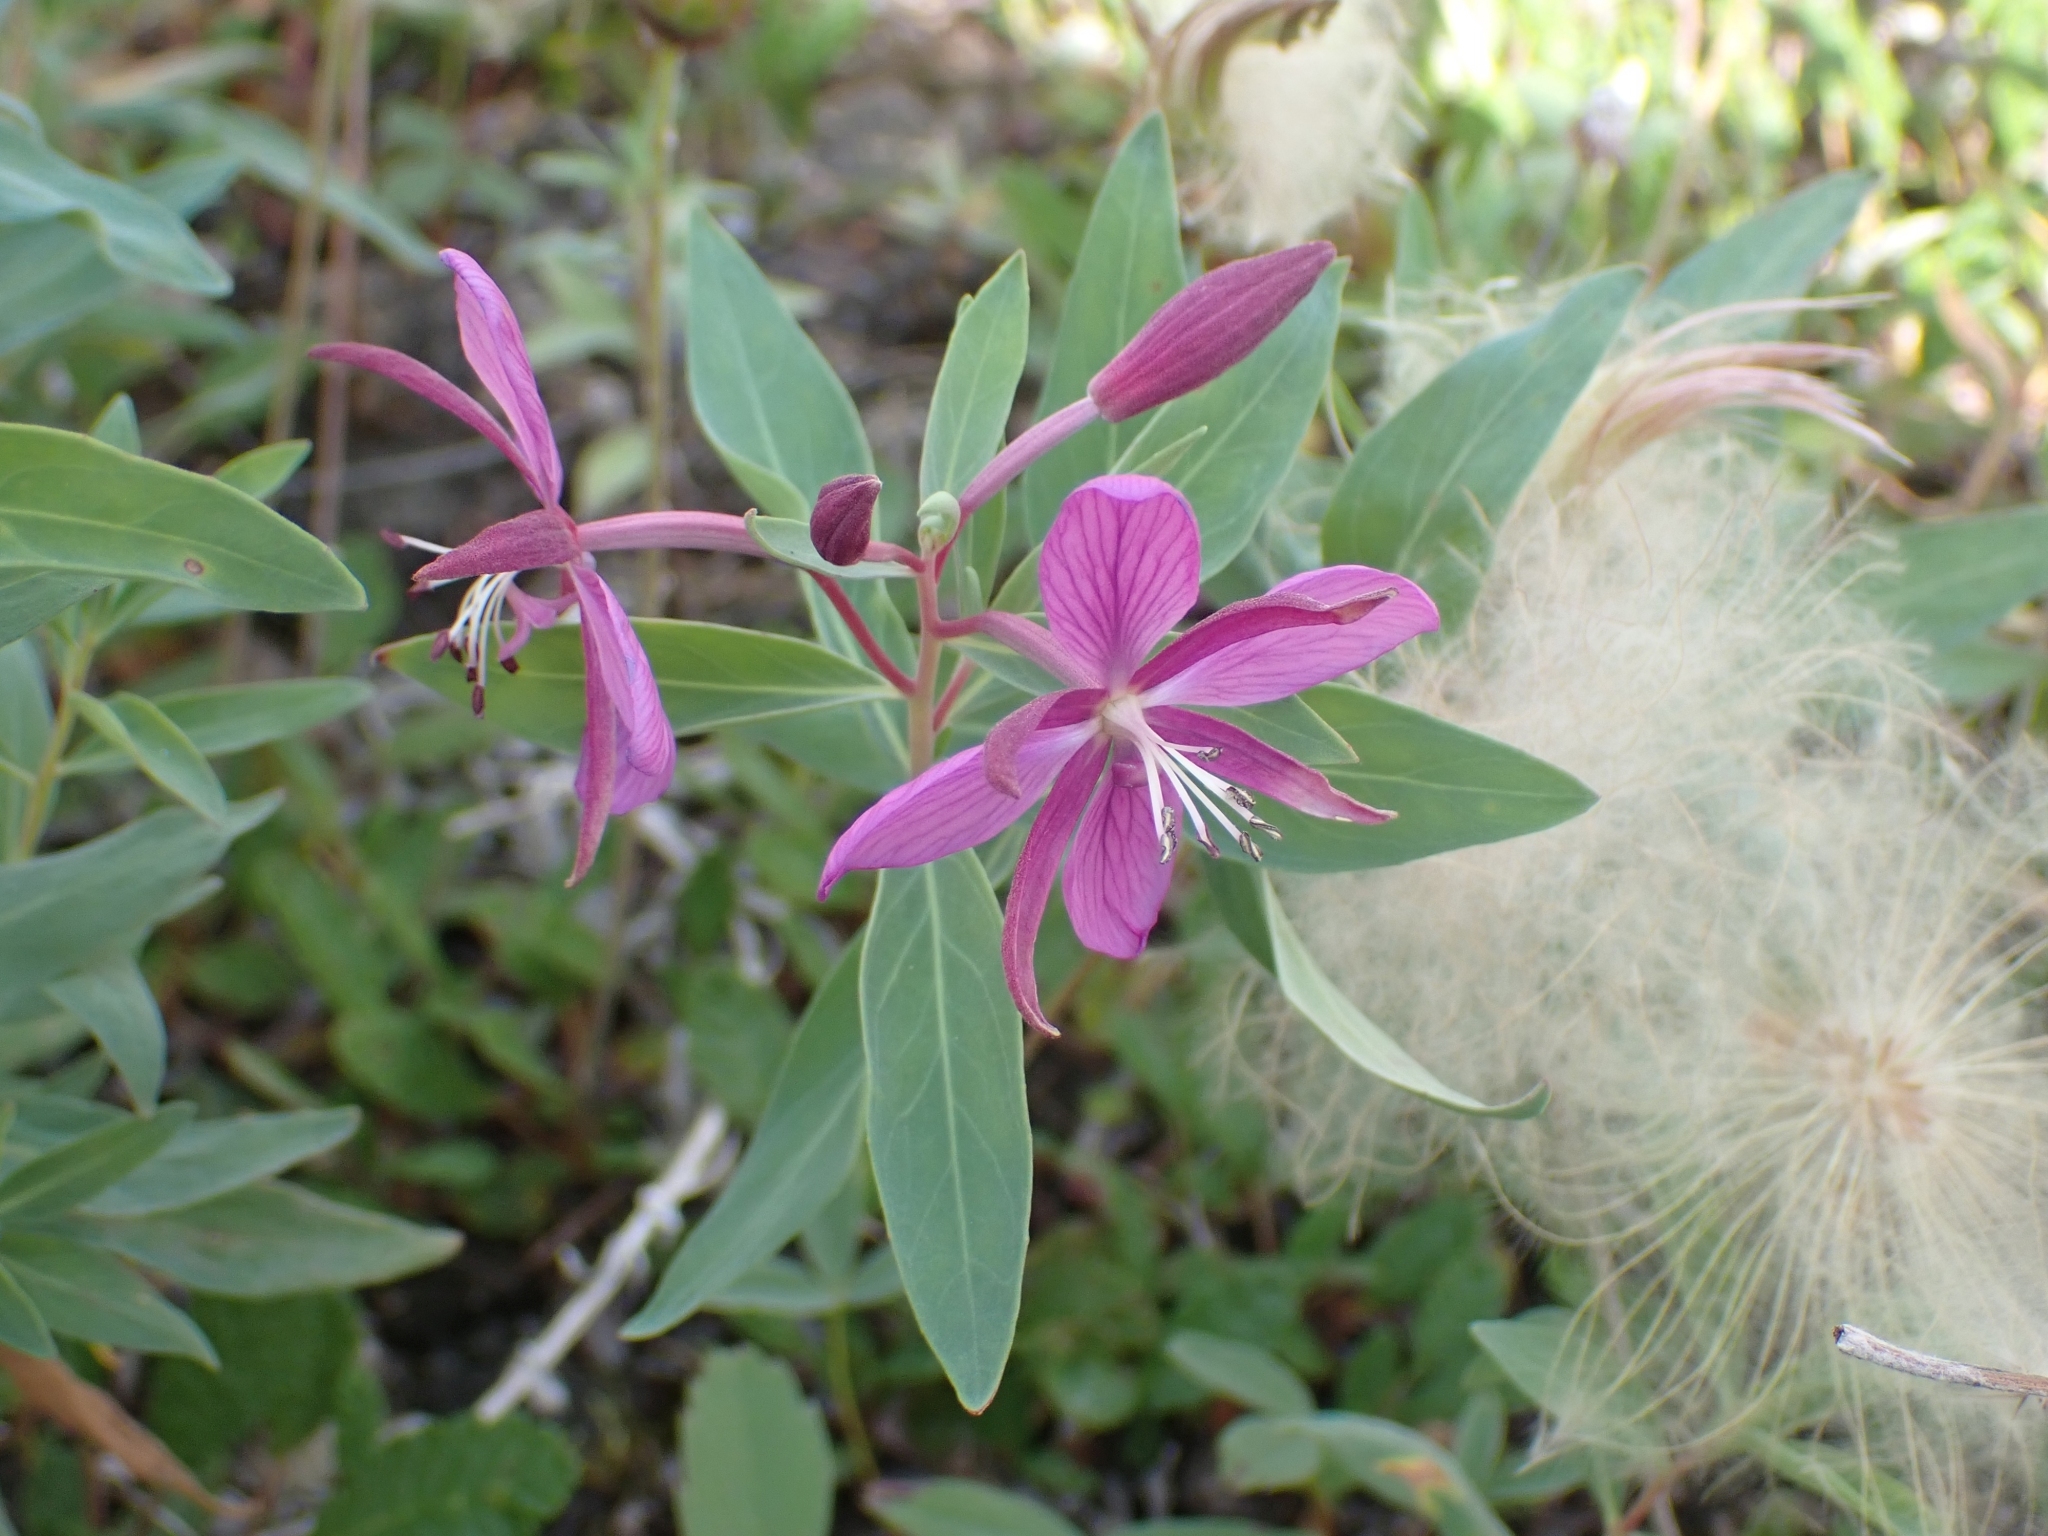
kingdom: Plantae
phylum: Tracheophyta
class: Magnoliopsida
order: Myrtales
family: Onagraceae
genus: Chamaenerion
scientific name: Chamaenerion latifolium
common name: Dwarf fireweed
